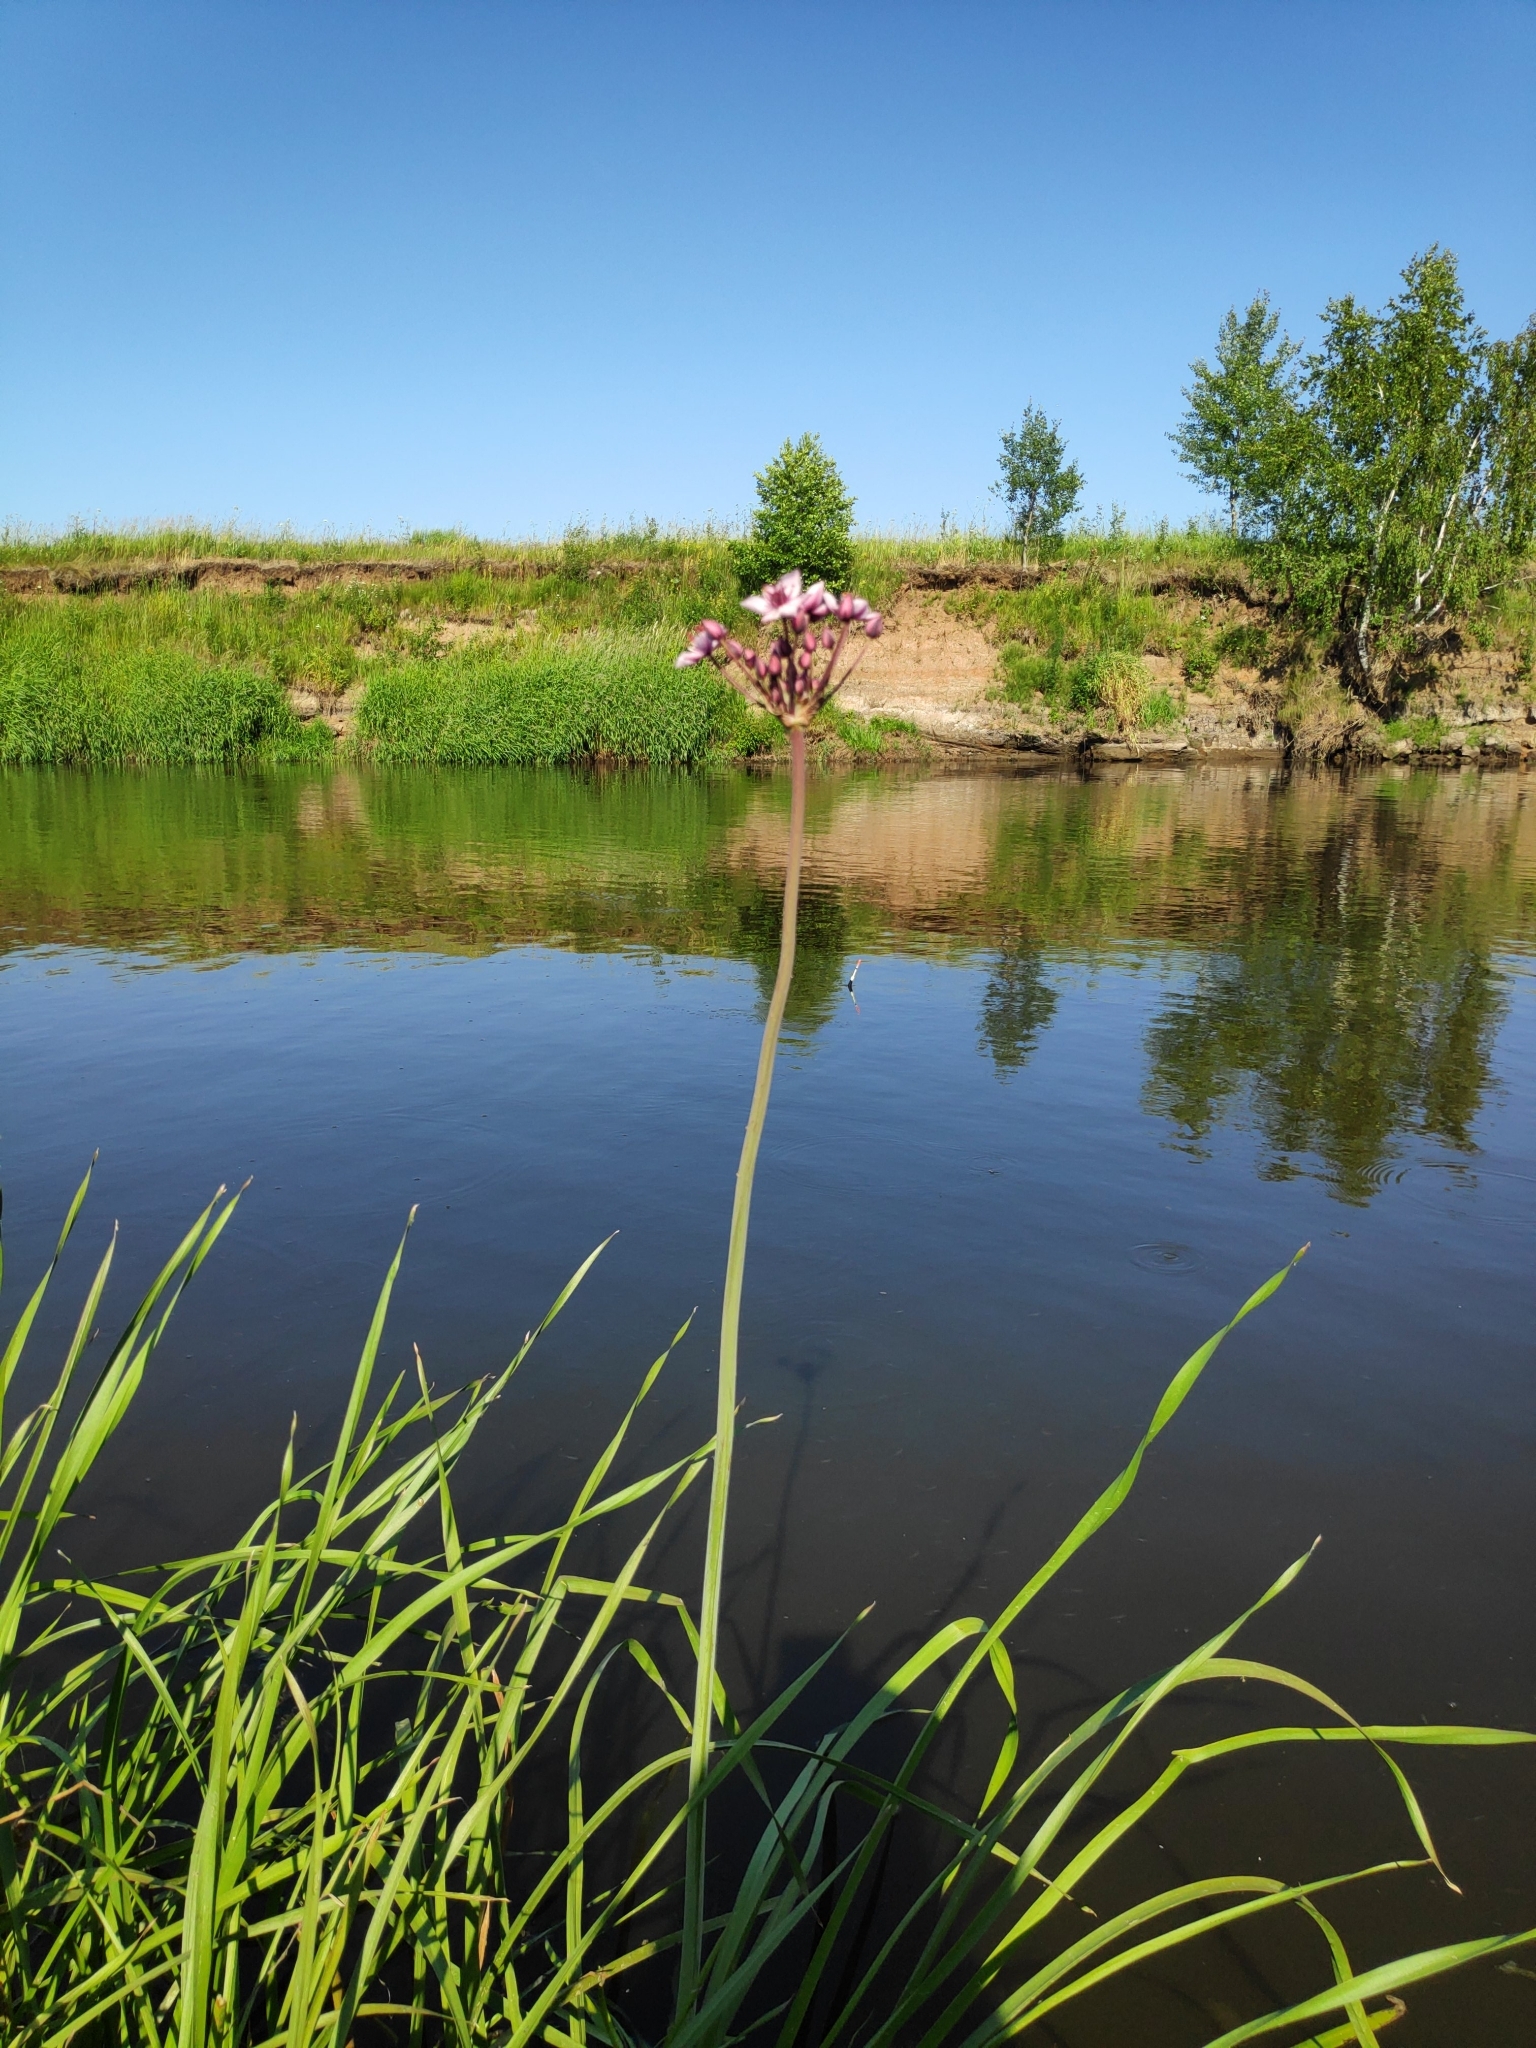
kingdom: Plantae
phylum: Tracheophyta
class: Liliopsida
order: Alismatales
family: Butomaceae
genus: Butomus
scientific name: Butomus umbellatus
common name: Flowering-rush
